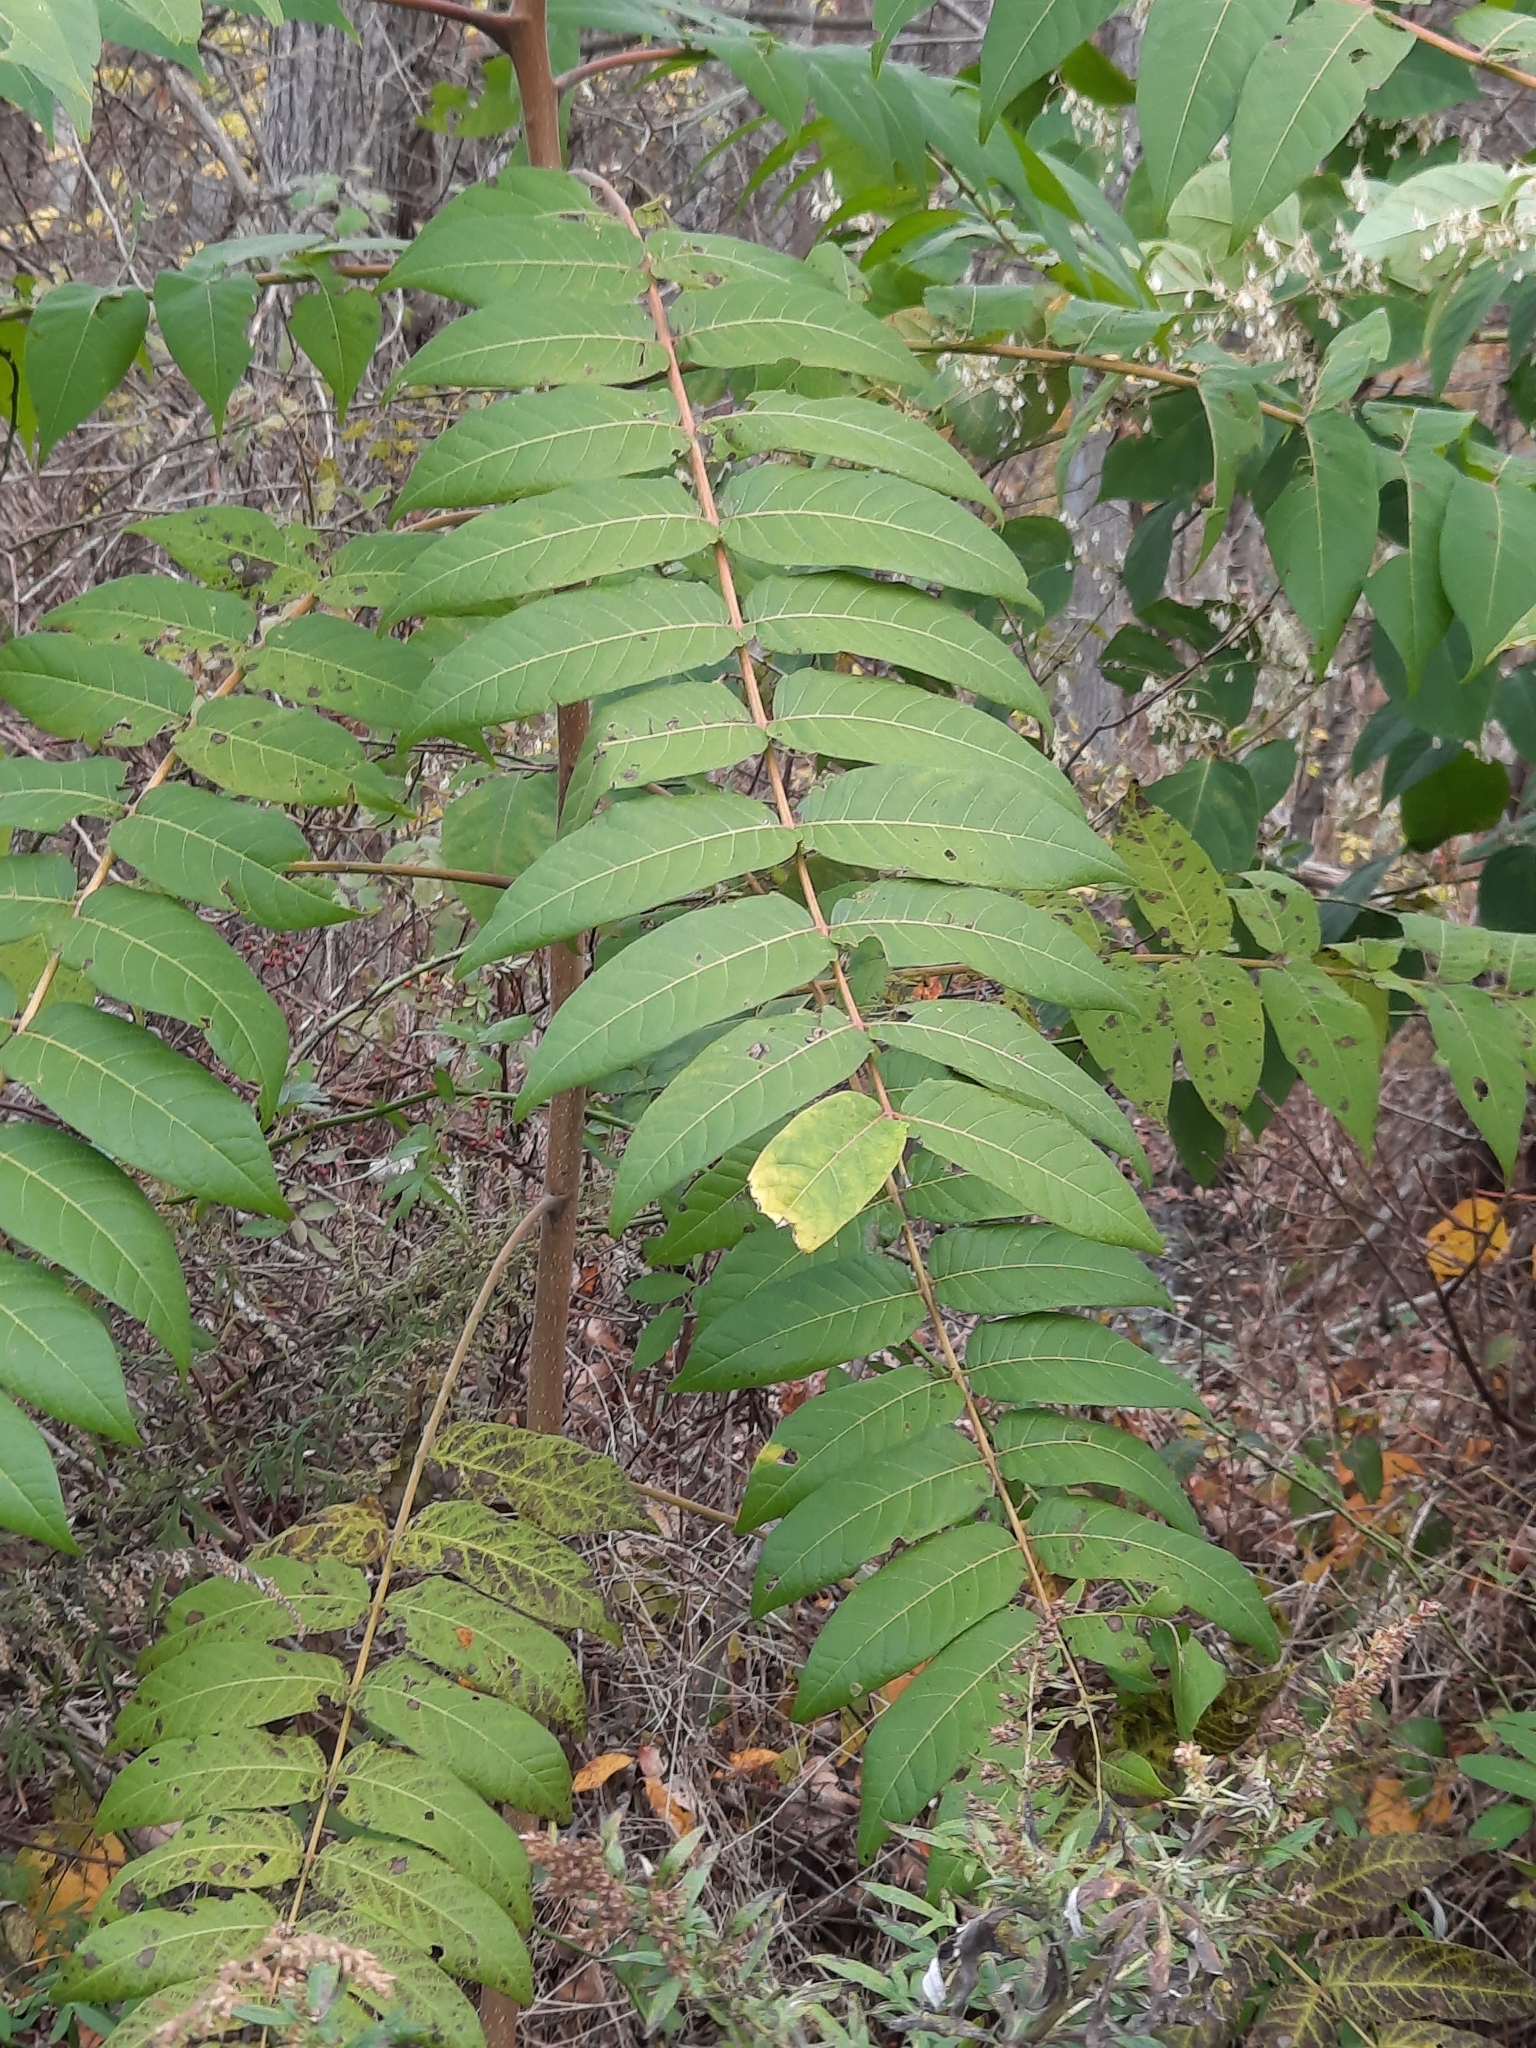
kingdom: Plantae
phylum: Tracheophyta
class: Magnoliopsida
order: Sapindales
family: Simaroubaceae
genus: Ailanthus
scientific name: Ailanthus altissima
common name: Tree-of-heaven
